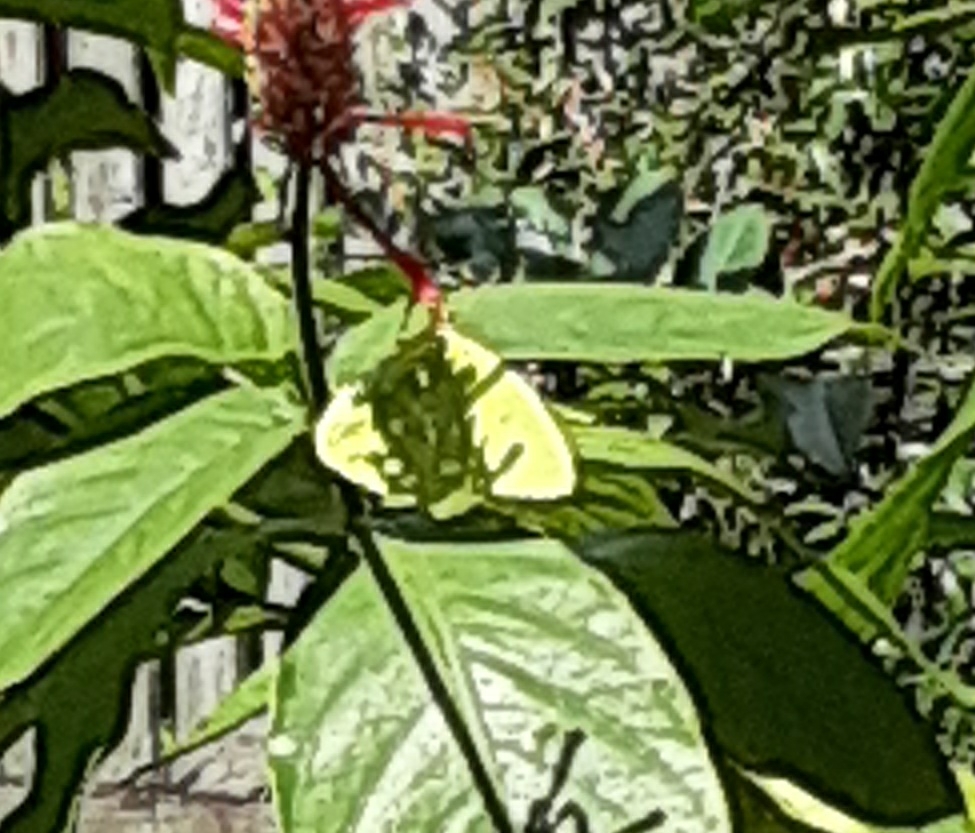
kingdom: Animalia
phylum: Arthropoda
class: Insecta
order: Lepidoptera
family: Pieridae
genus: Phoebis
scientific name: Phoebis sennae
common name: Cloudless sulphur
